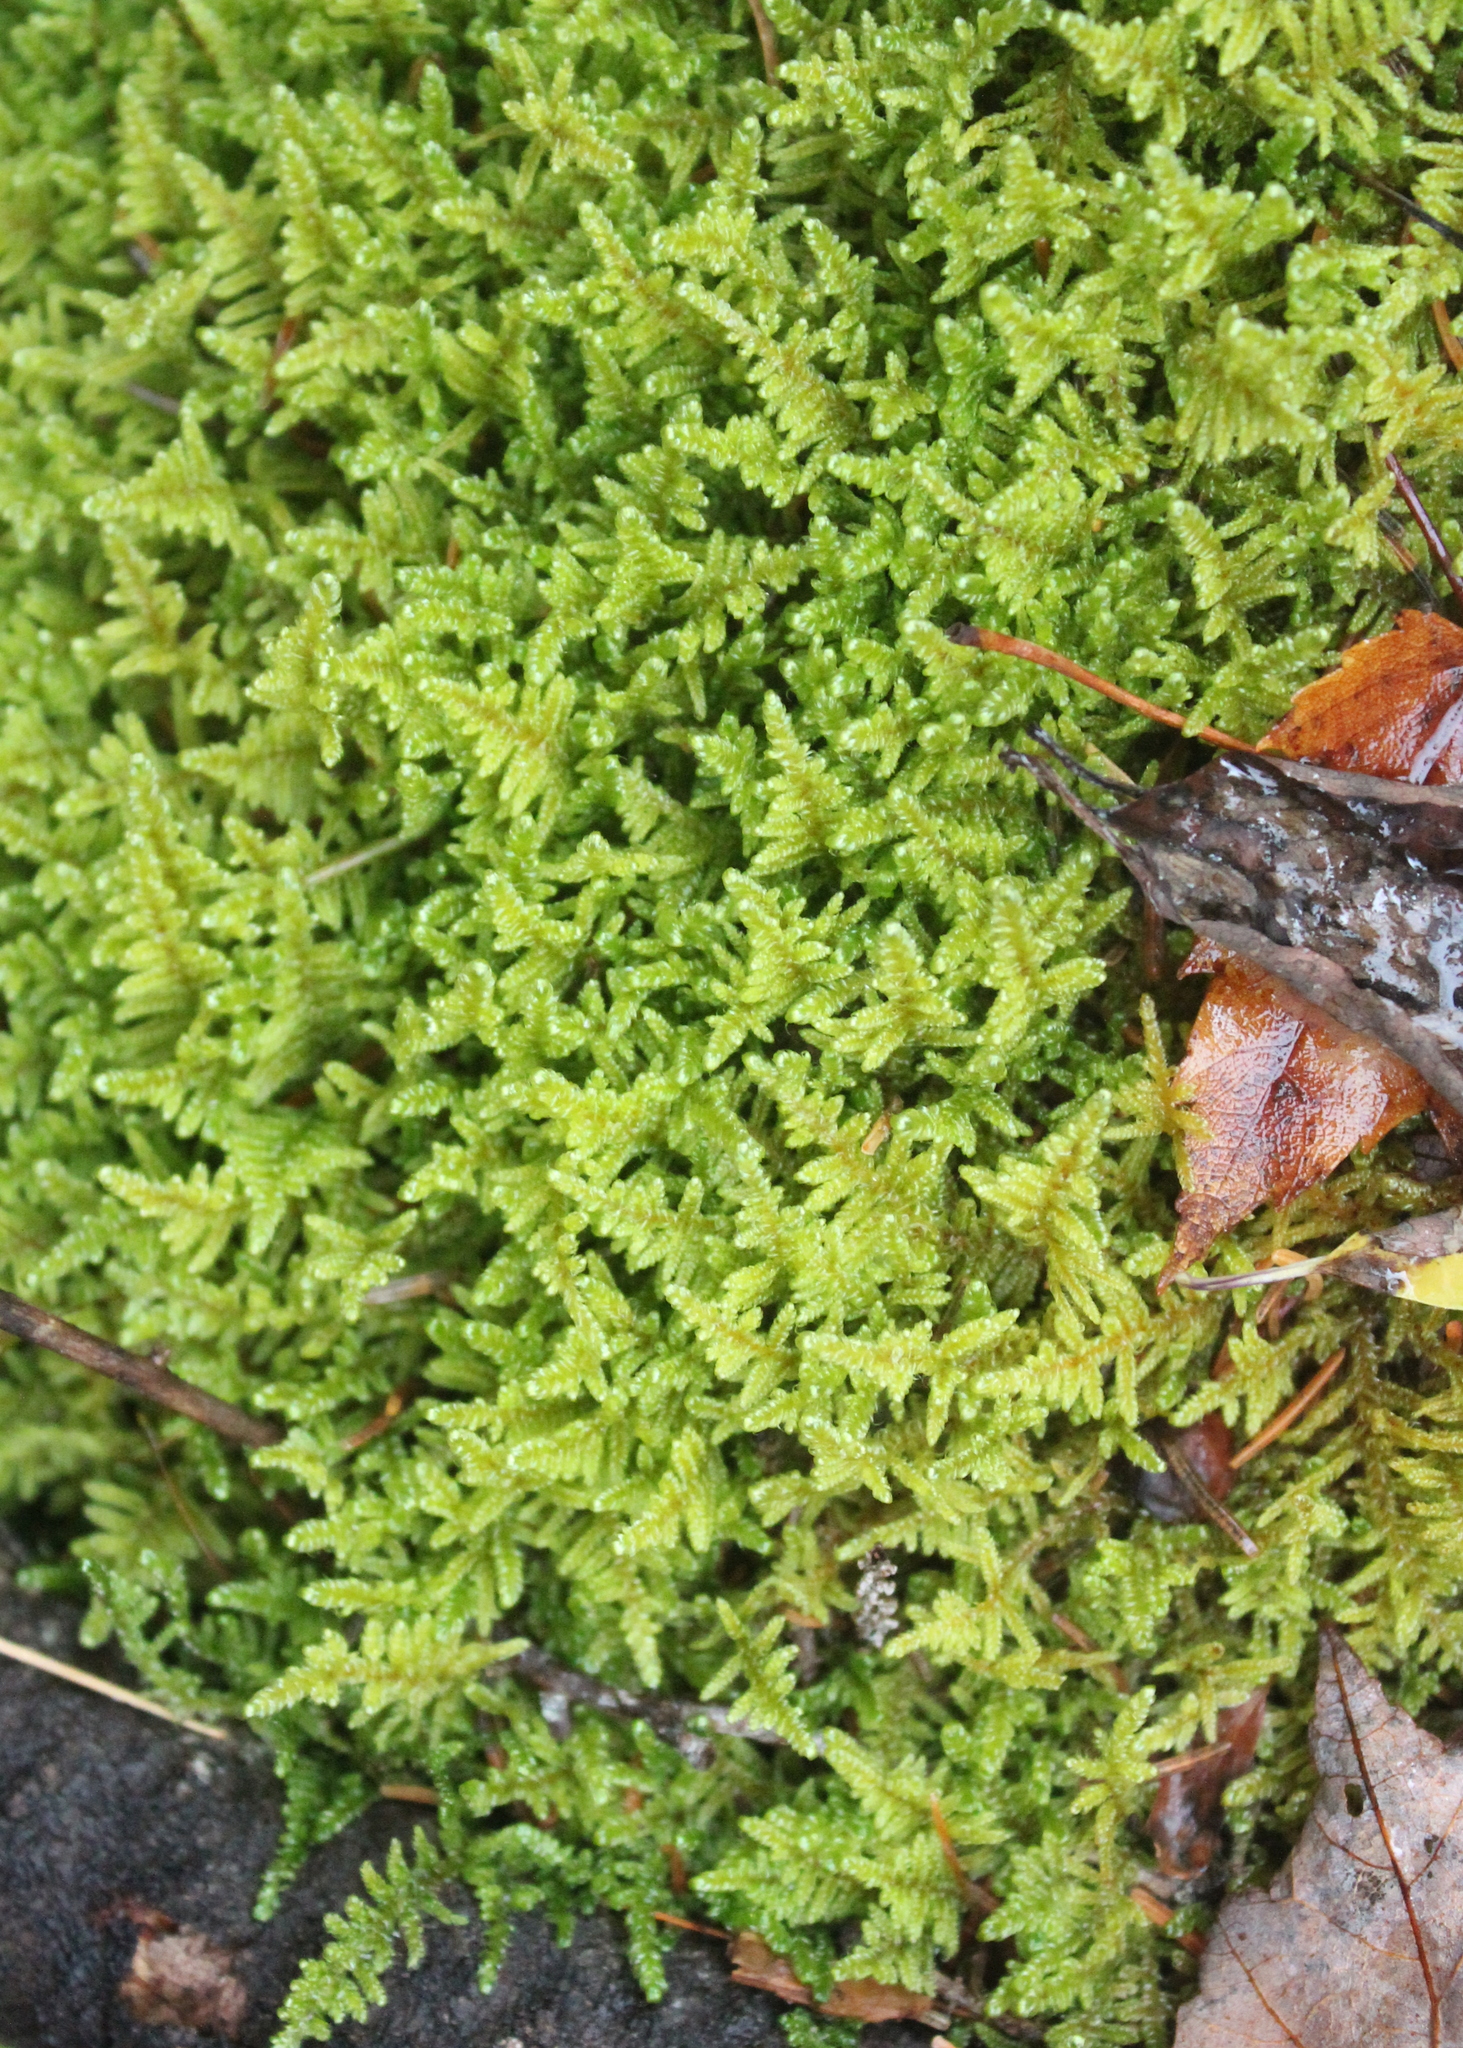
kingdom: Plantae
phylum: Bryophyta
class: Bryopsida
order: Hypnales
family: Callicladiaceae
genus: Callicladium
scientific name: Callicladium imponens
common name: Brocade moss
